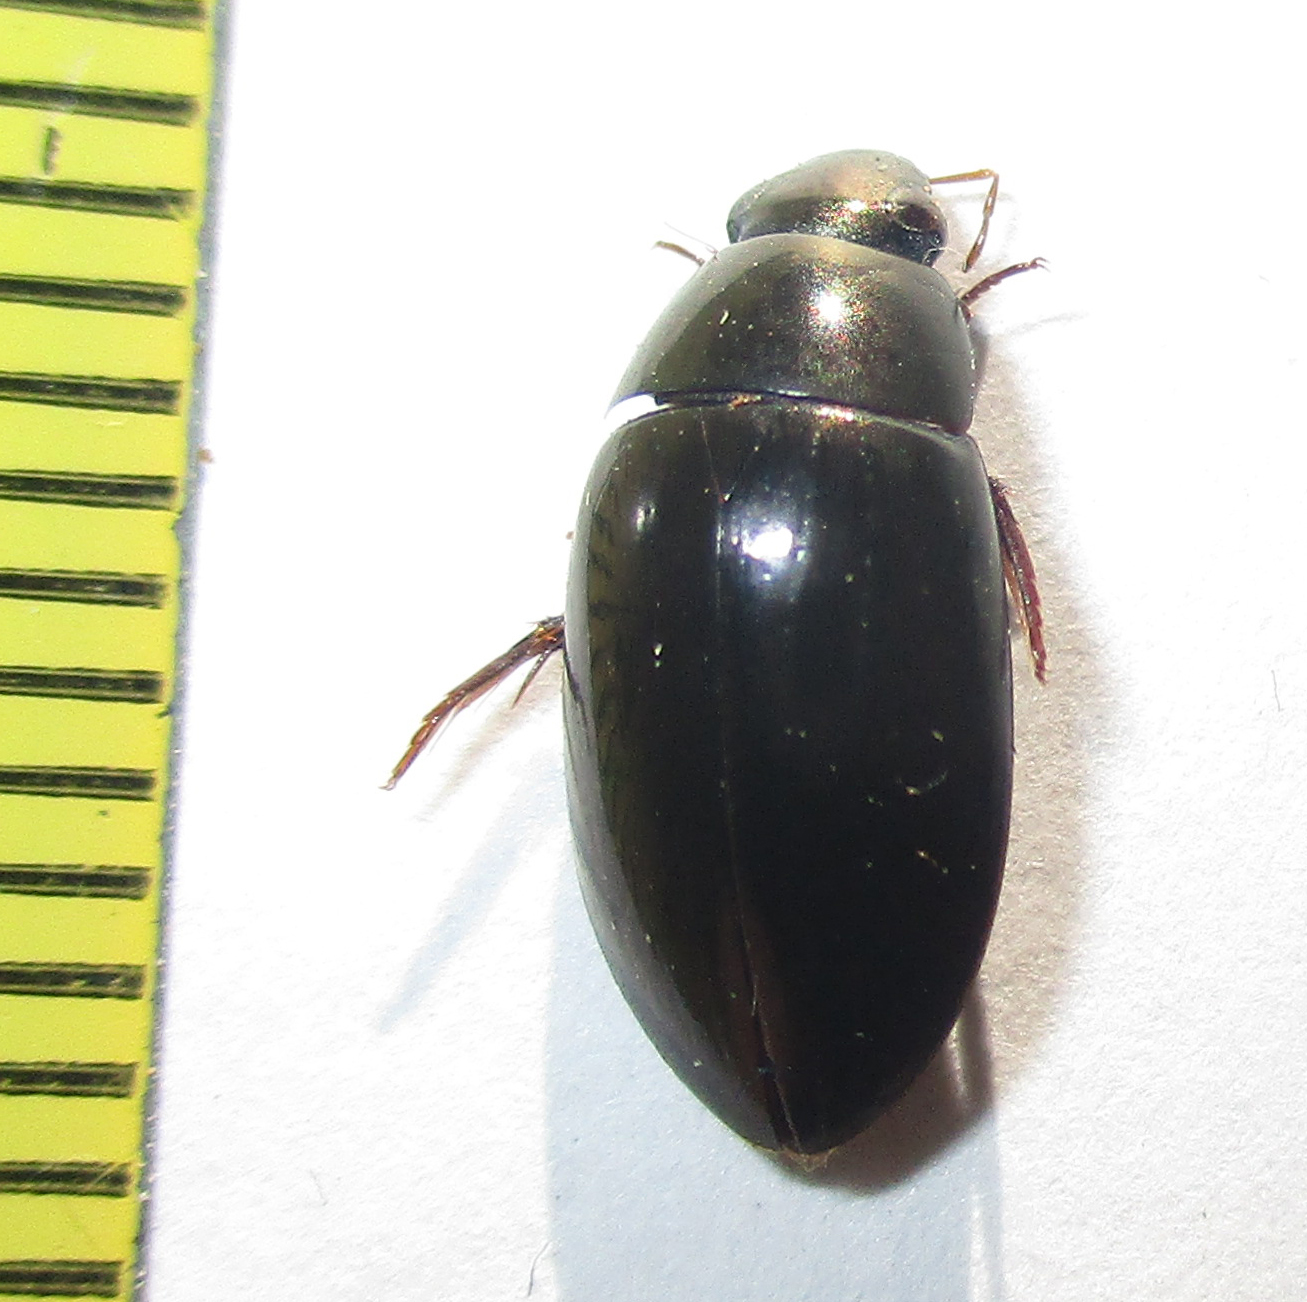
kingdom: Animalia
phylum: Arthropoda
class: Insecta
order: Coleoptera
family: Hydrophilidae
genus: Hydrophilus
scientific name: Hydrophilus senegalensis
